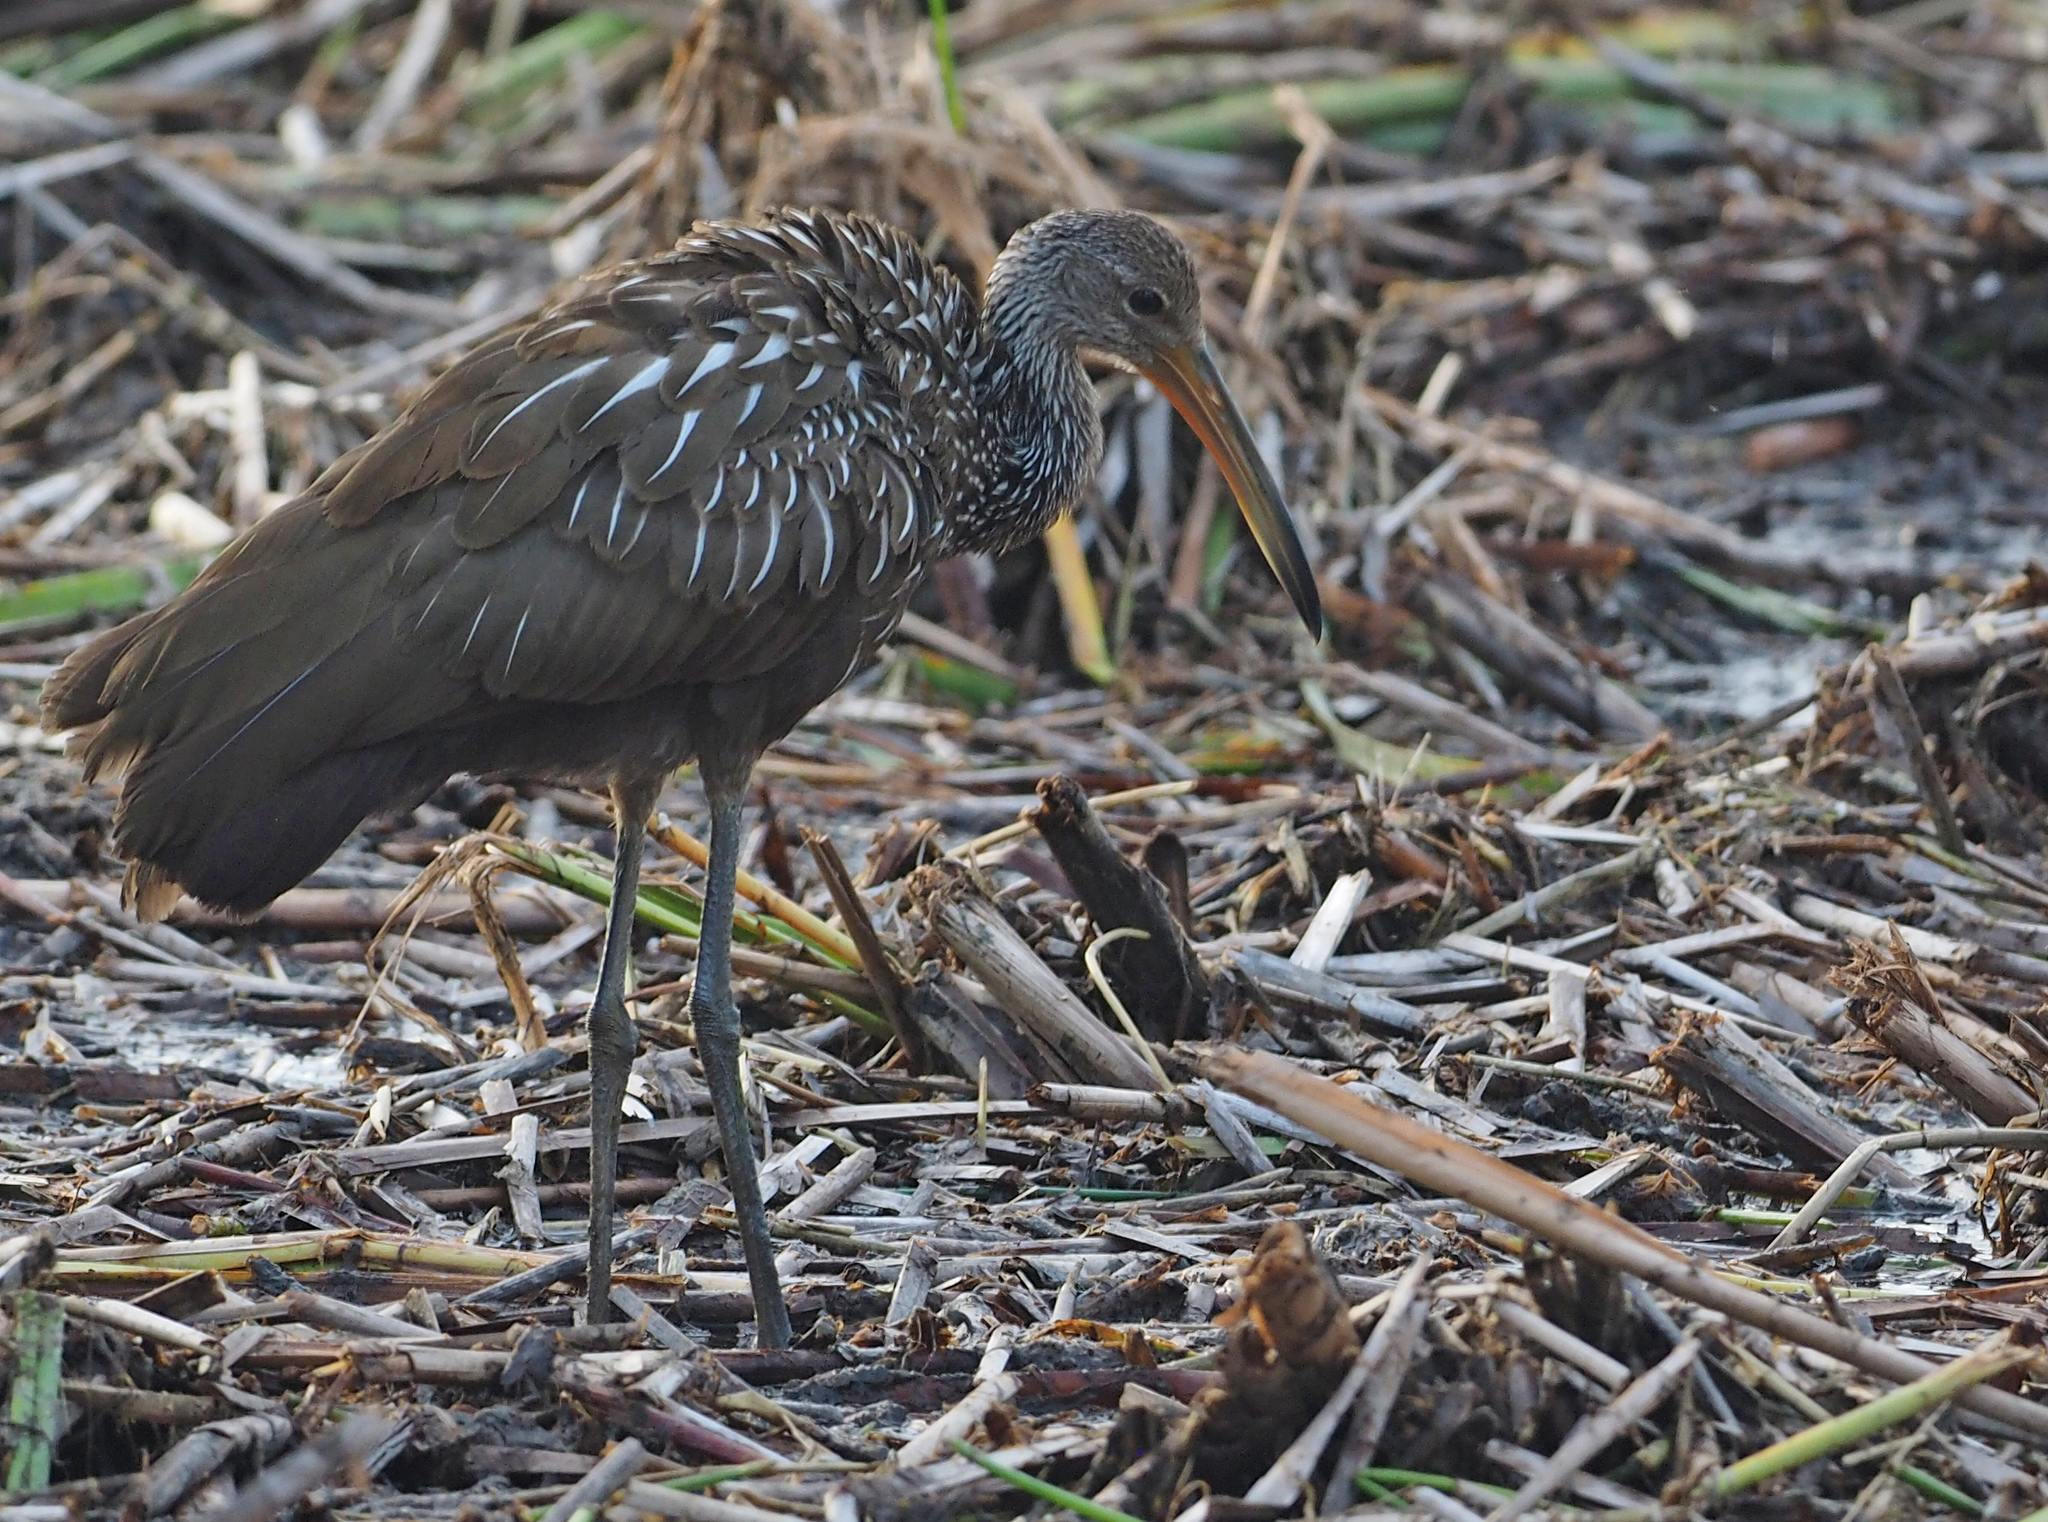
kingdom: Animalia
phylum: Chordata
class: Aves
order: Gruiformes
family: Aramidae
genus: Aramus
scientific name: Aramus guarauna
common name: Limpkin
